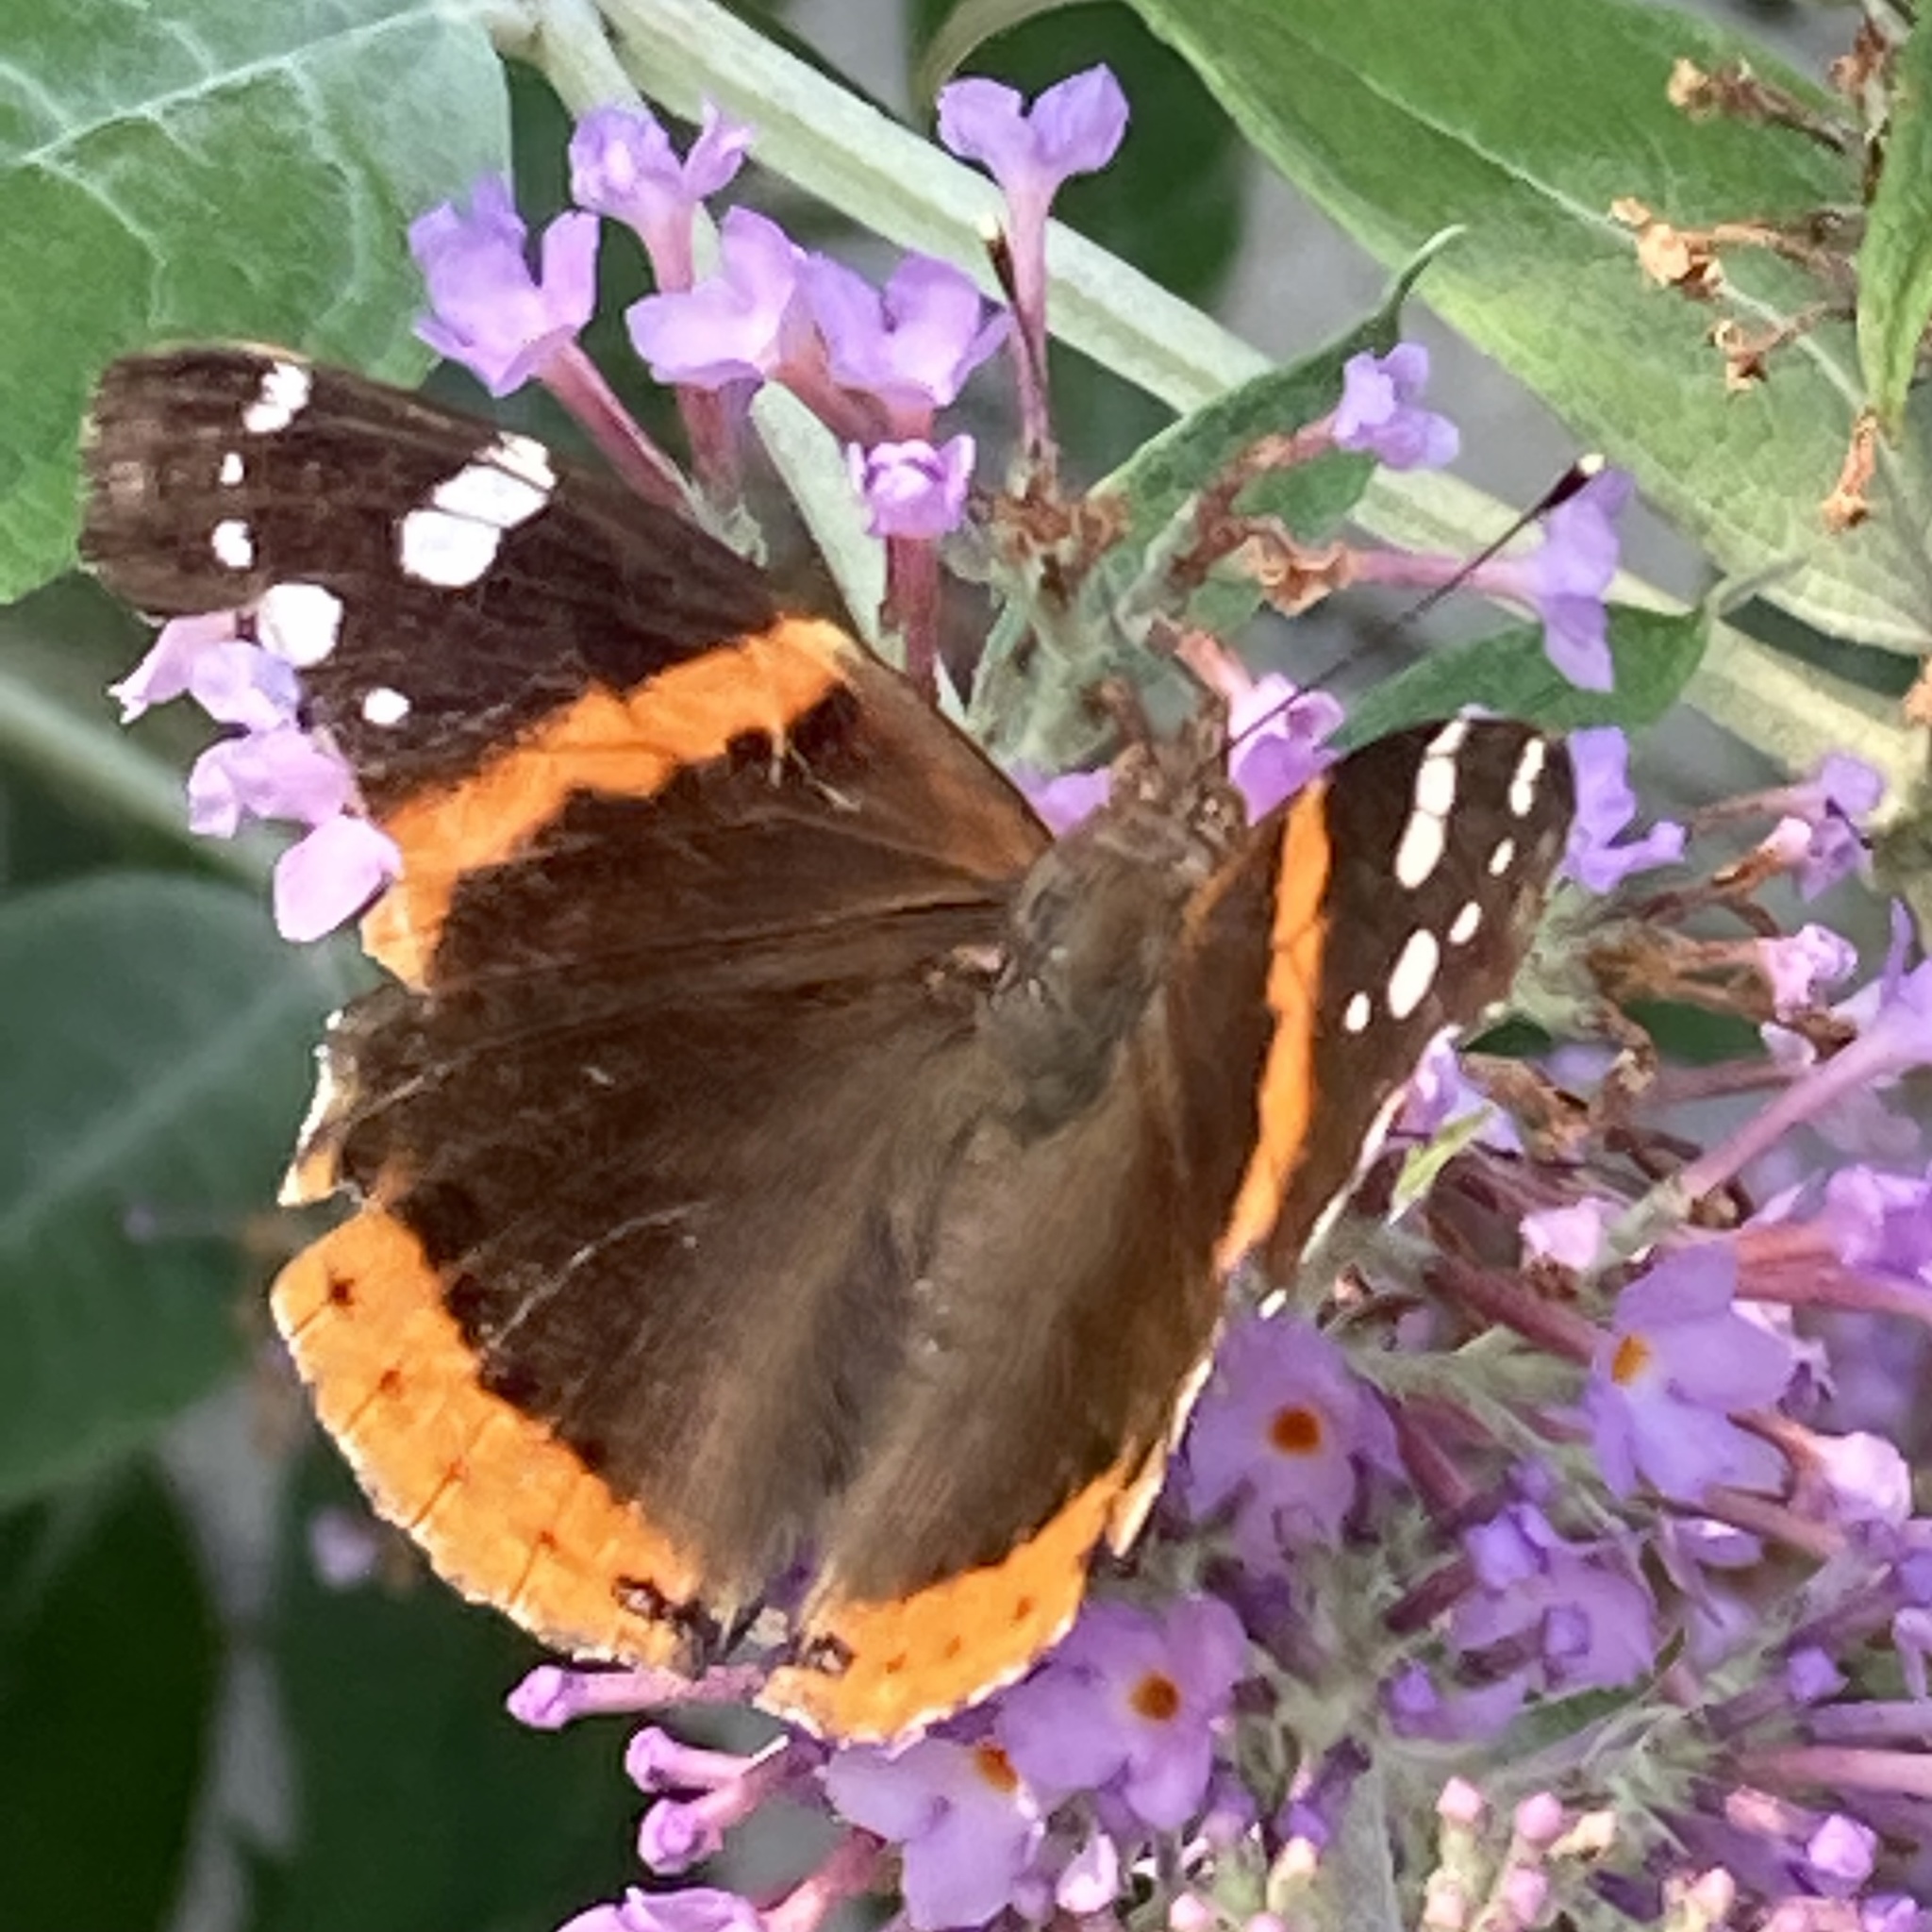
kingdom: Animalia
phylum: Arthropoda
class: Insecta
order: Lepidoptera
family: Nymphalidae
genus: Vanessa
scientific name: Vanessa atalanta
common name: Red admiral
